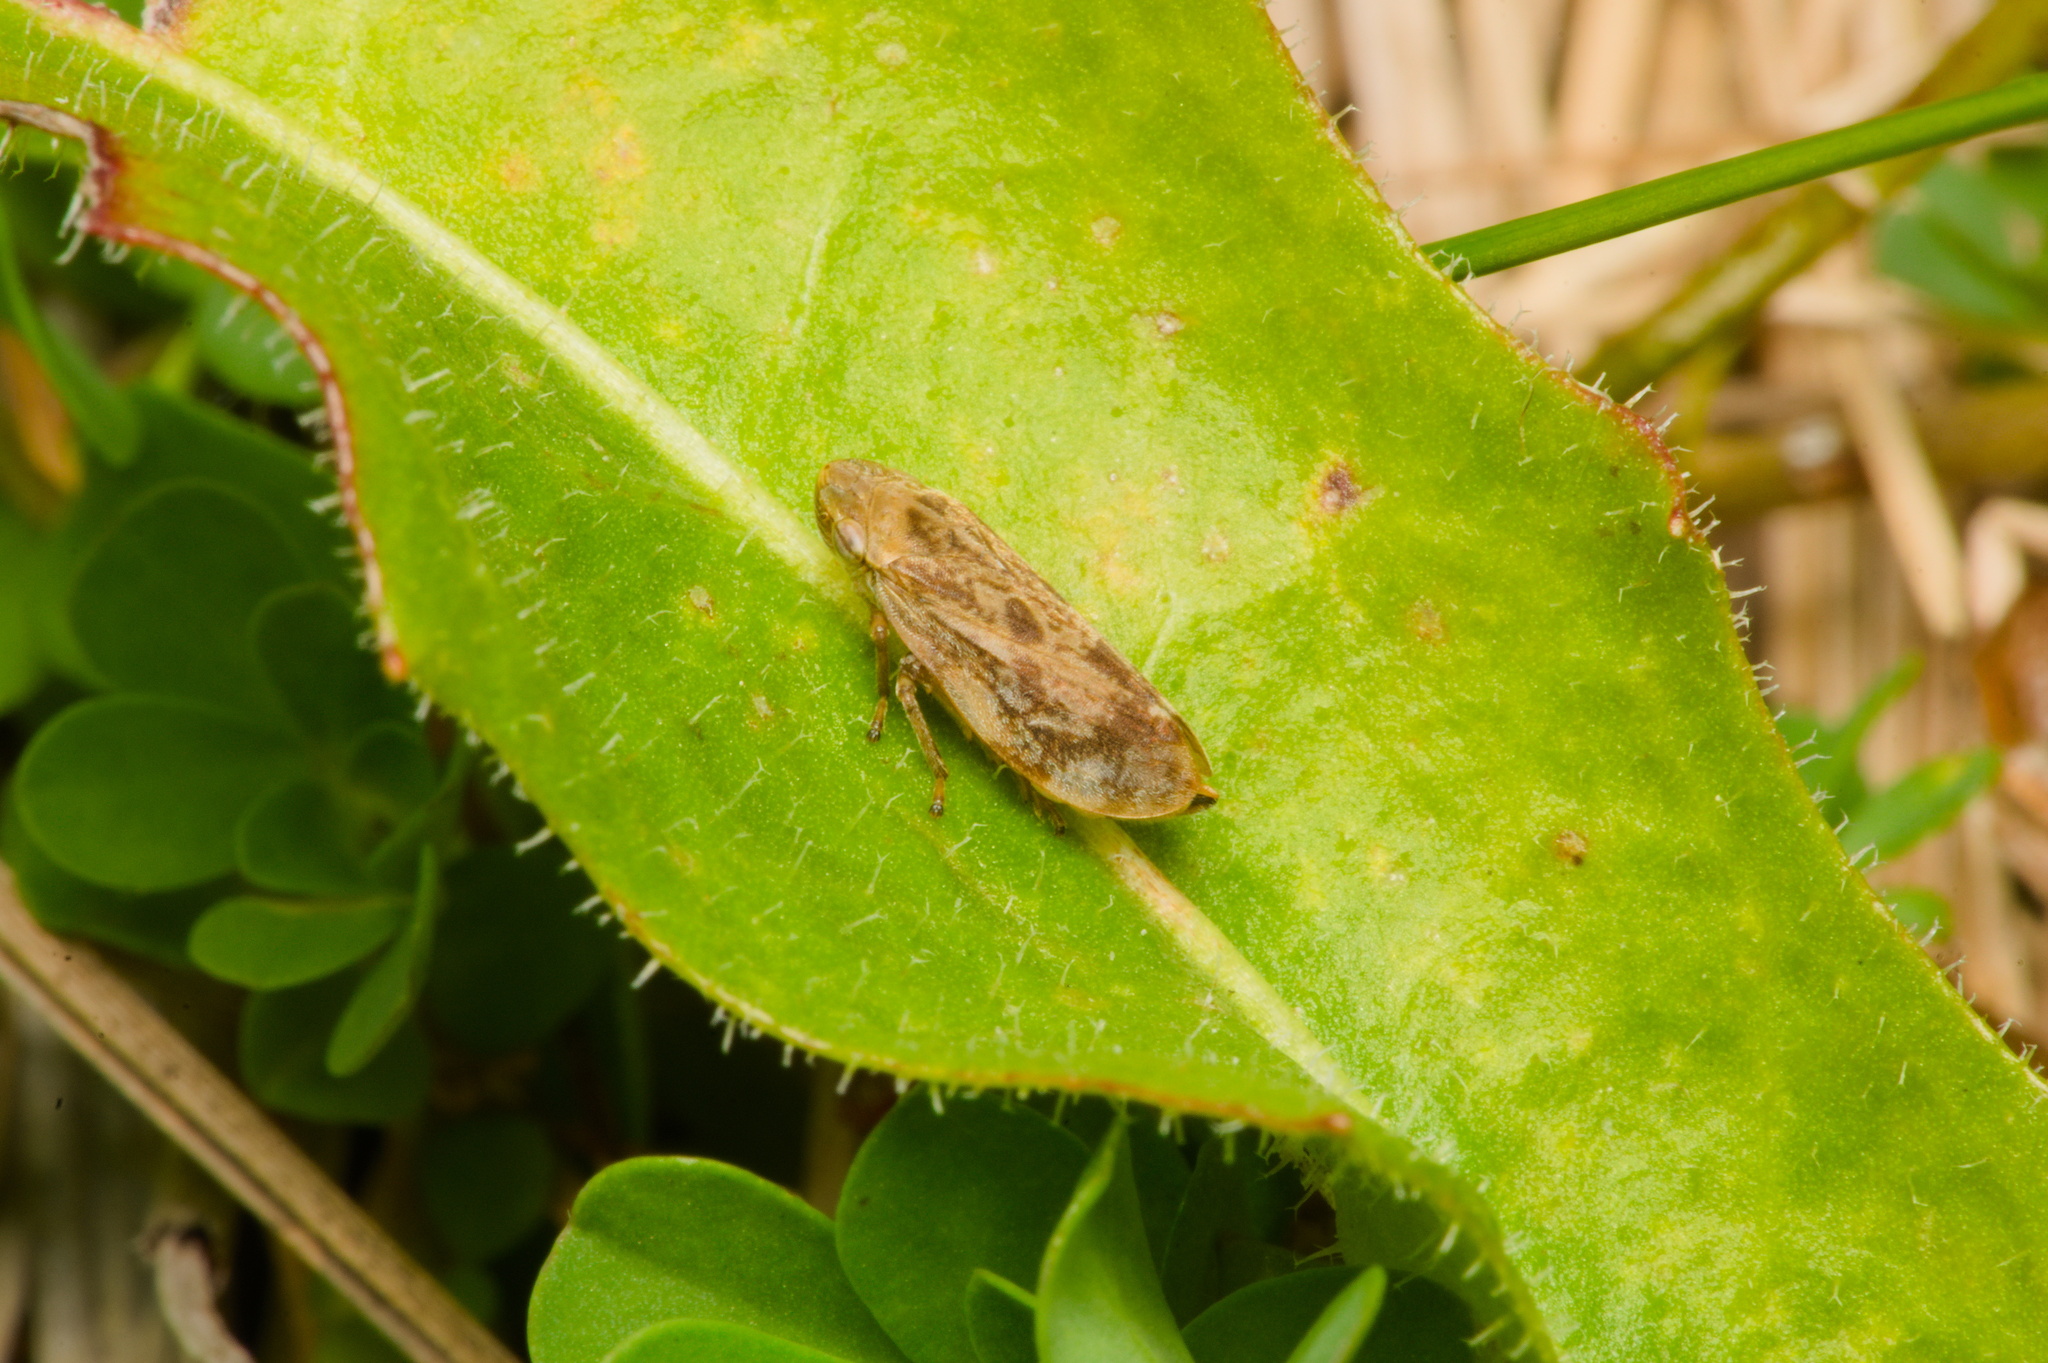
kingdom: Animalia
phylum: Arthropoda
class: Insecta
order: Hemiptera
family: Aphrophoridae
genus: Philaenus
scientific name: Philaenus spumarius
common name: Meadow spittlebug
